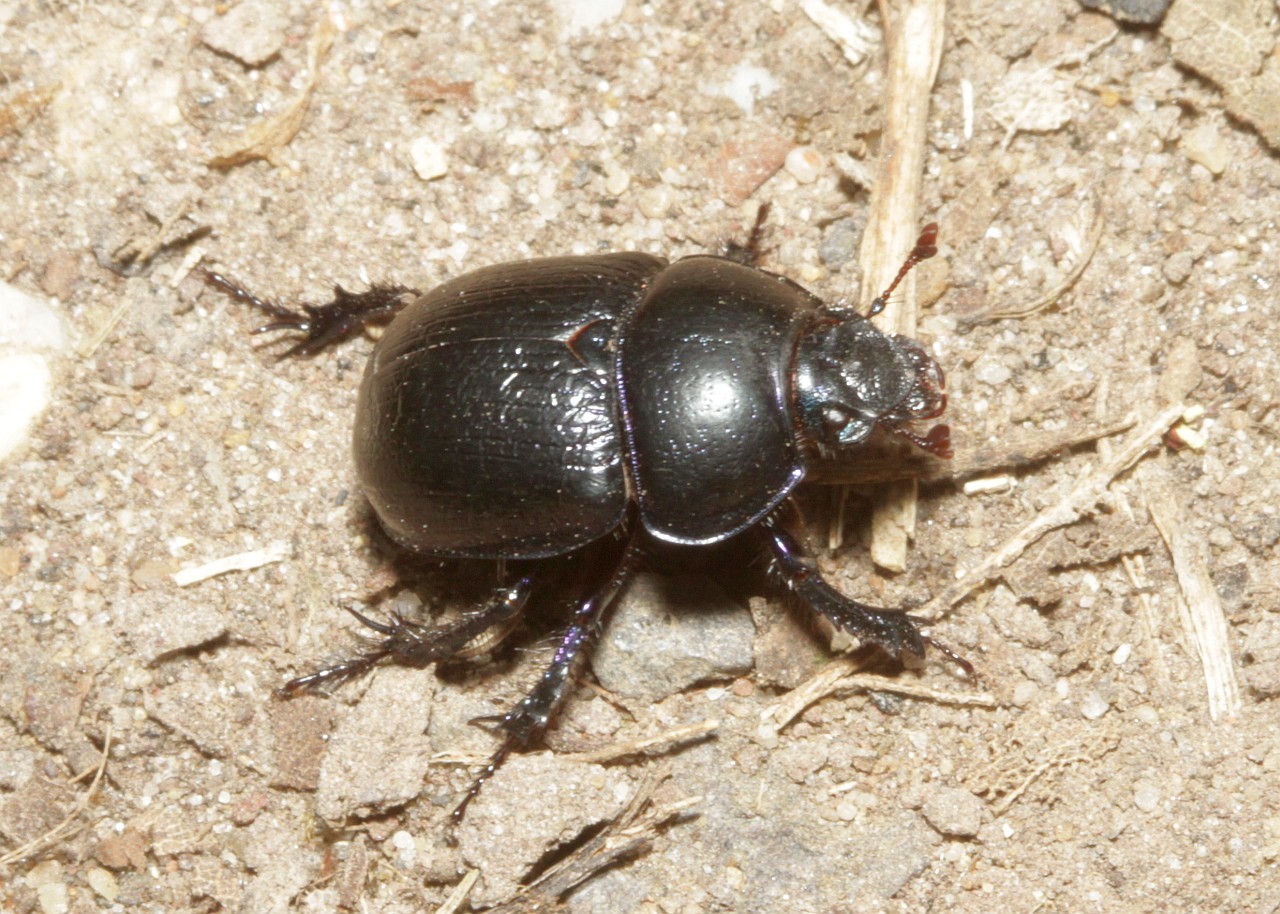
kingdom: Animalia
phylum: Arthropoda
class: Insecta
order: Coleoptera
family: Geotrupidae
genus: Anoplotrupes
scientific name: Anoplotrupes stercorosus
